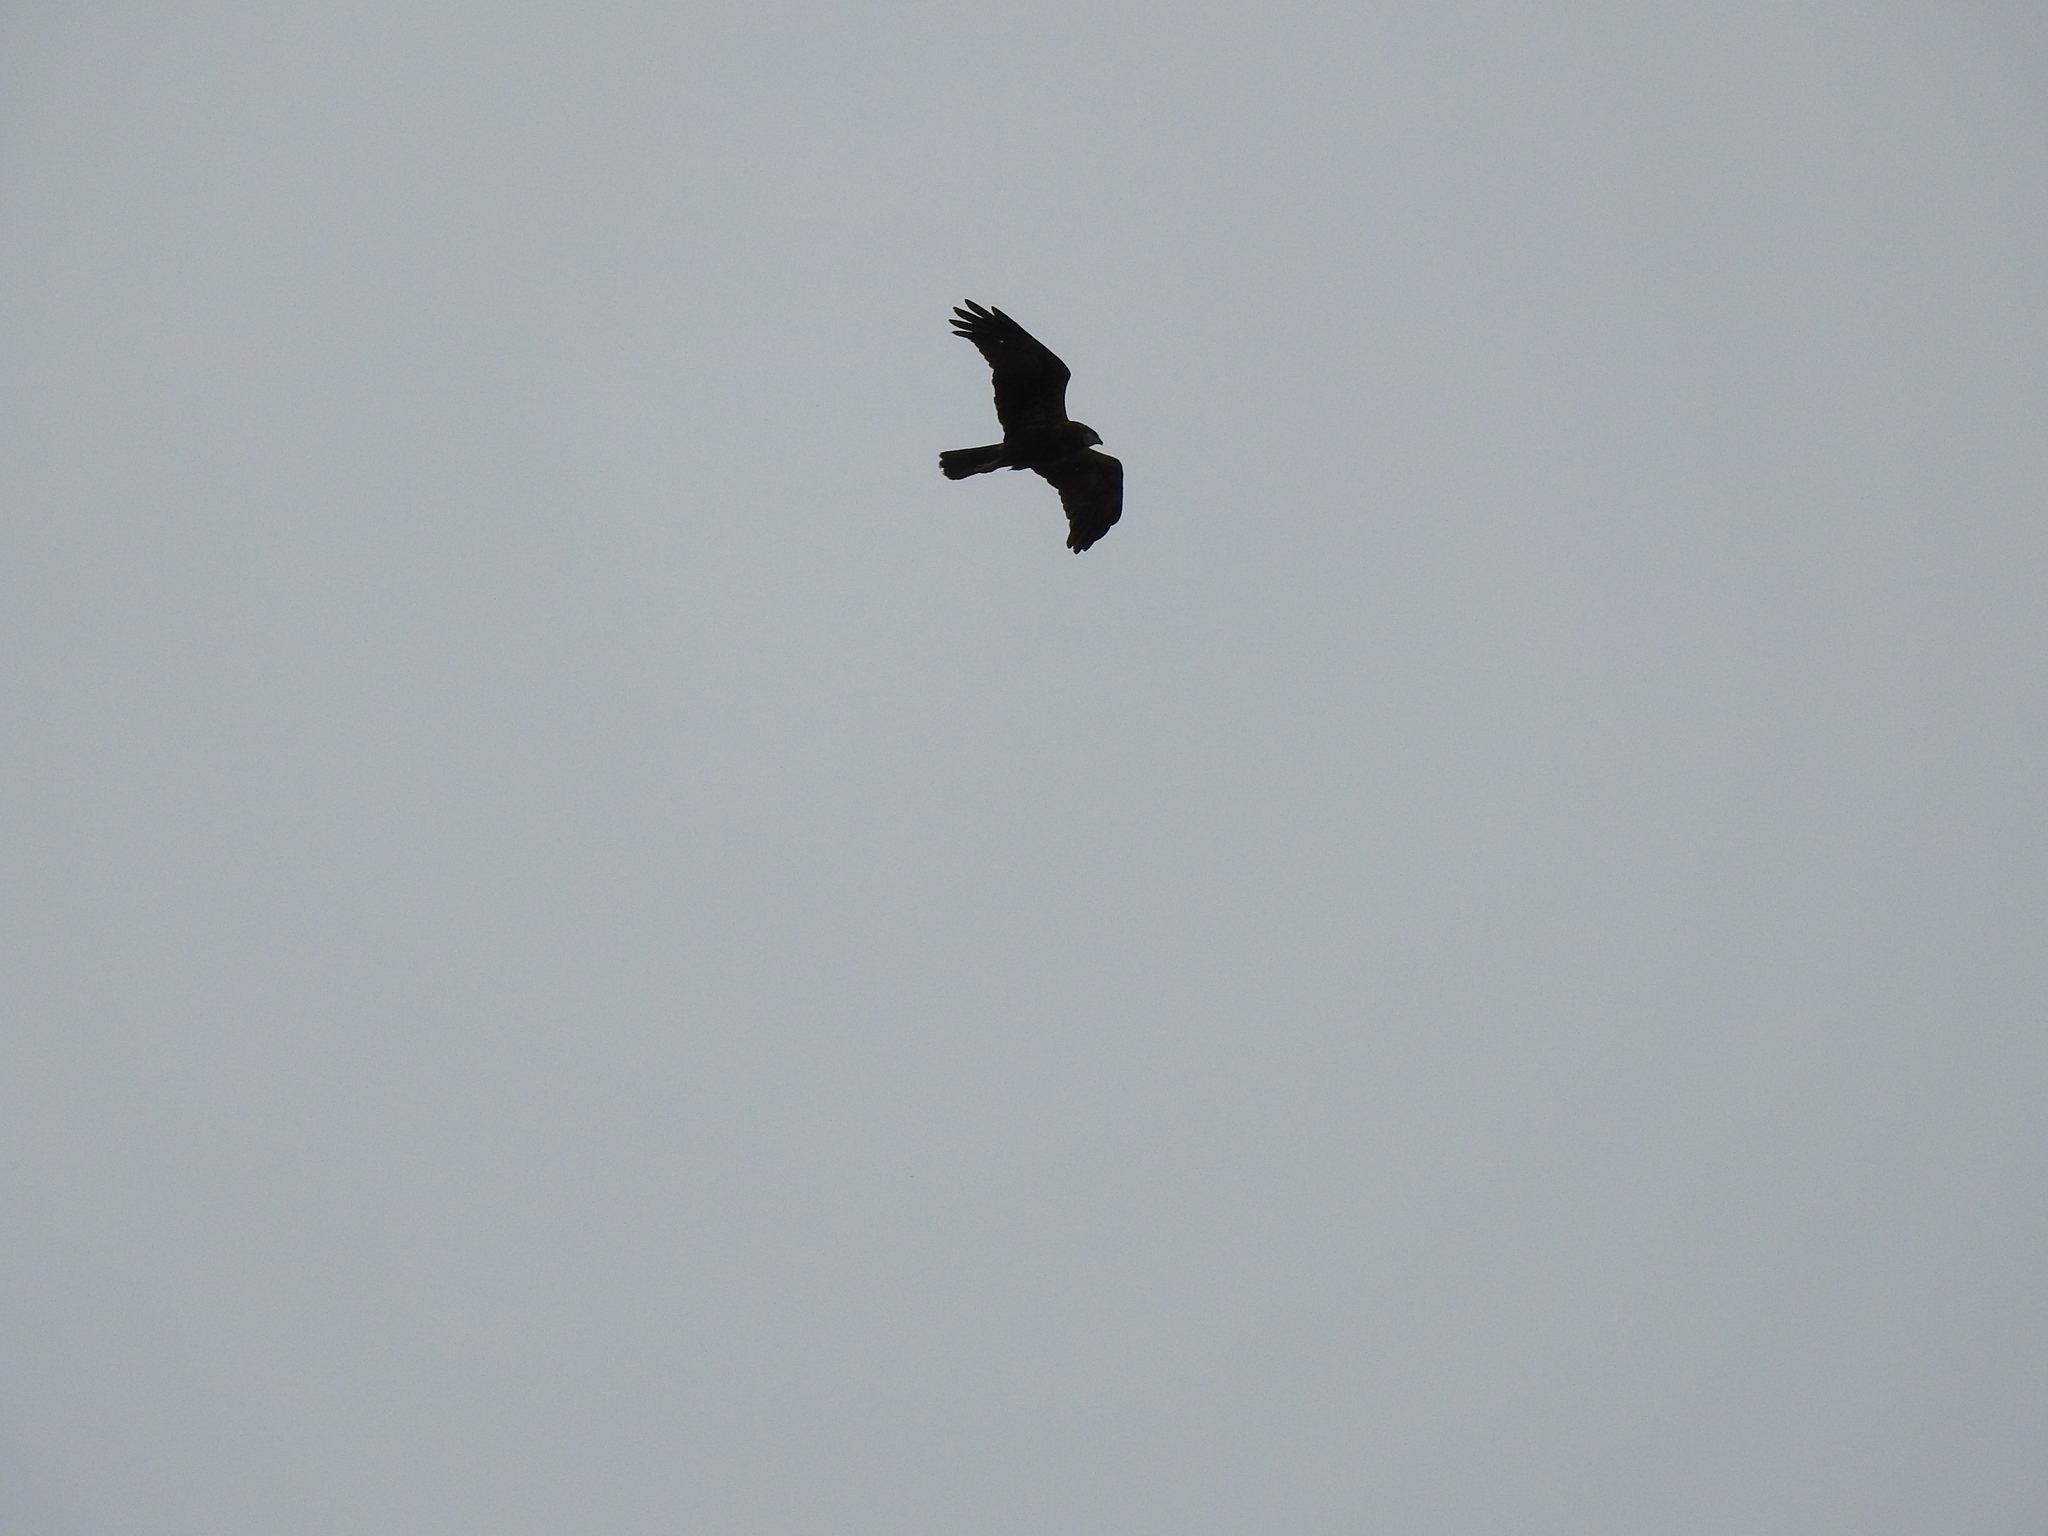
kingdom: Animalia
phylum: Chordata
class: Aves
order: Accipitriformes
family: Accipitridae
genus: Circus
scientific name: Circus aeruginosus
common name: Western marsh harrier
